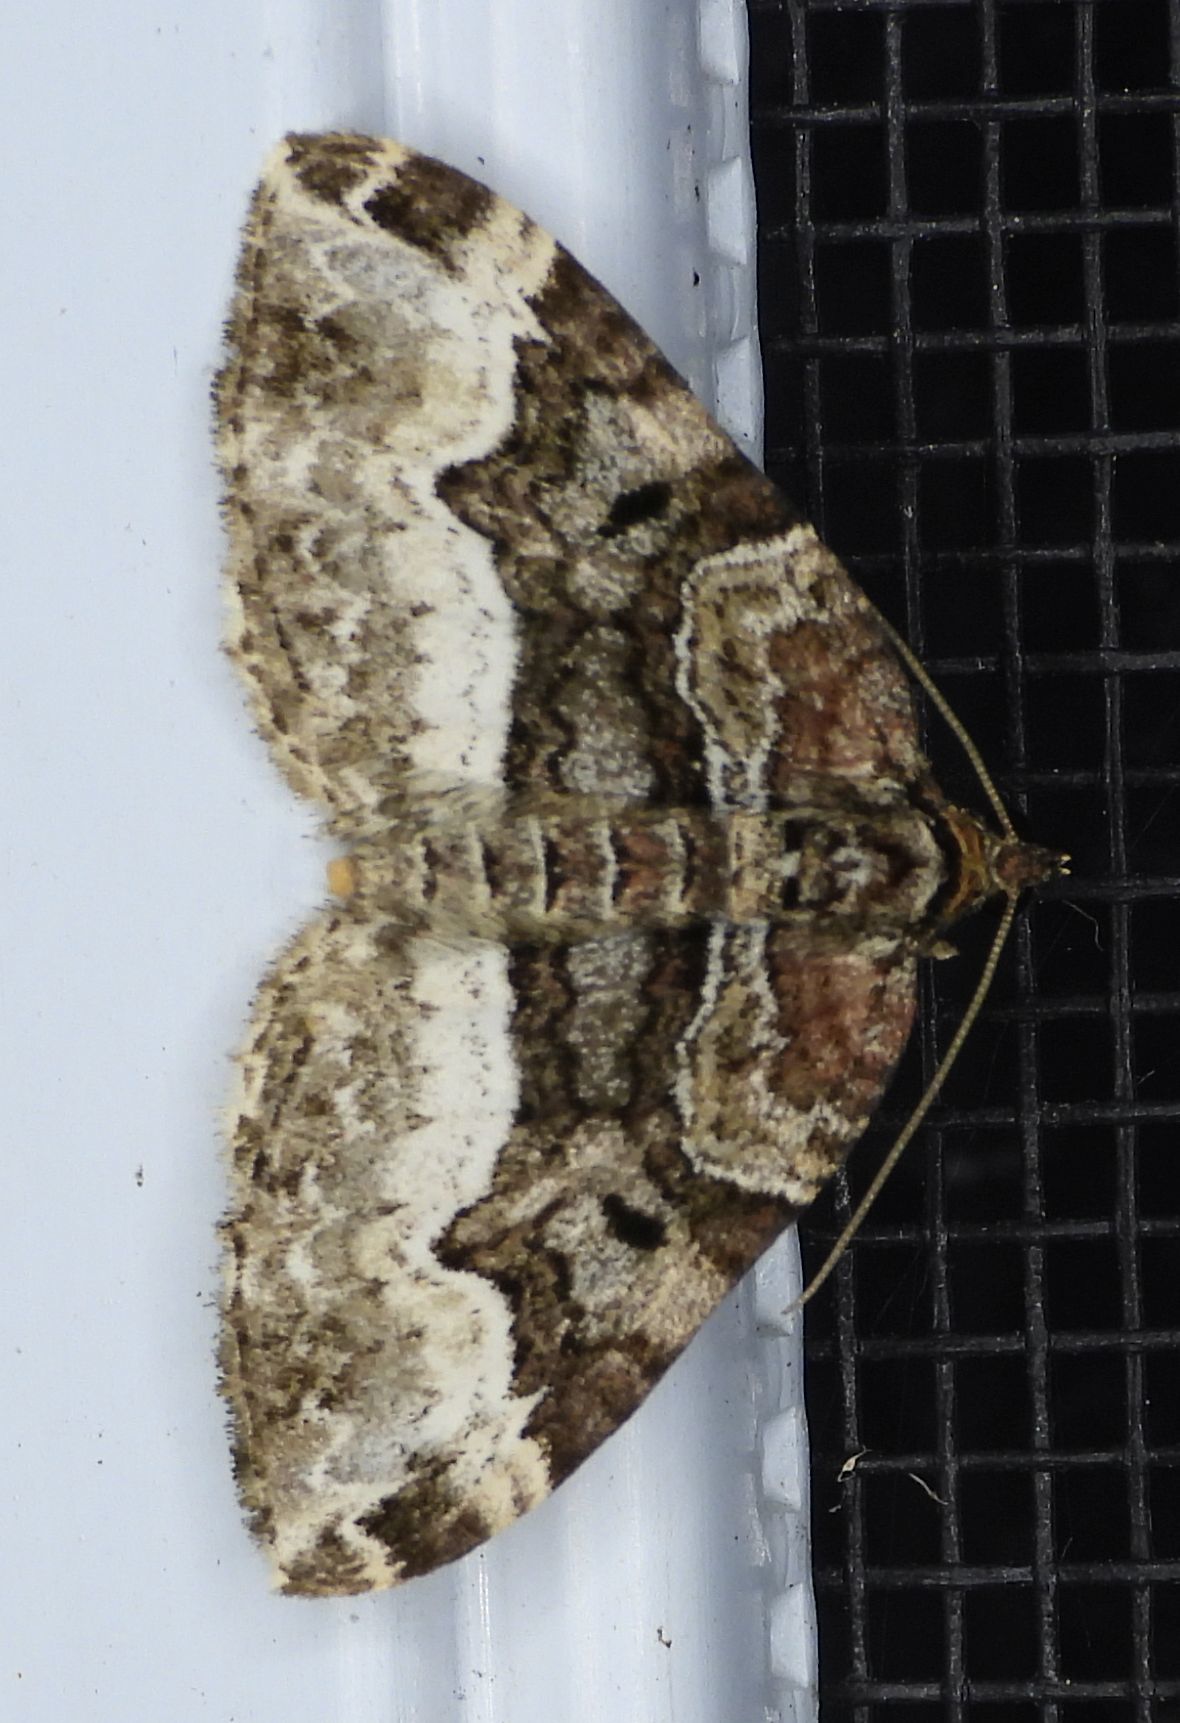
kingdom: Animalia
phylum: Arthropoda
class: Insecta
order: Lepidoptera
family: Geometridae
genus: Euphyia
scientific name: Euphyia intermediata
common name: Sharp-angled carpet
